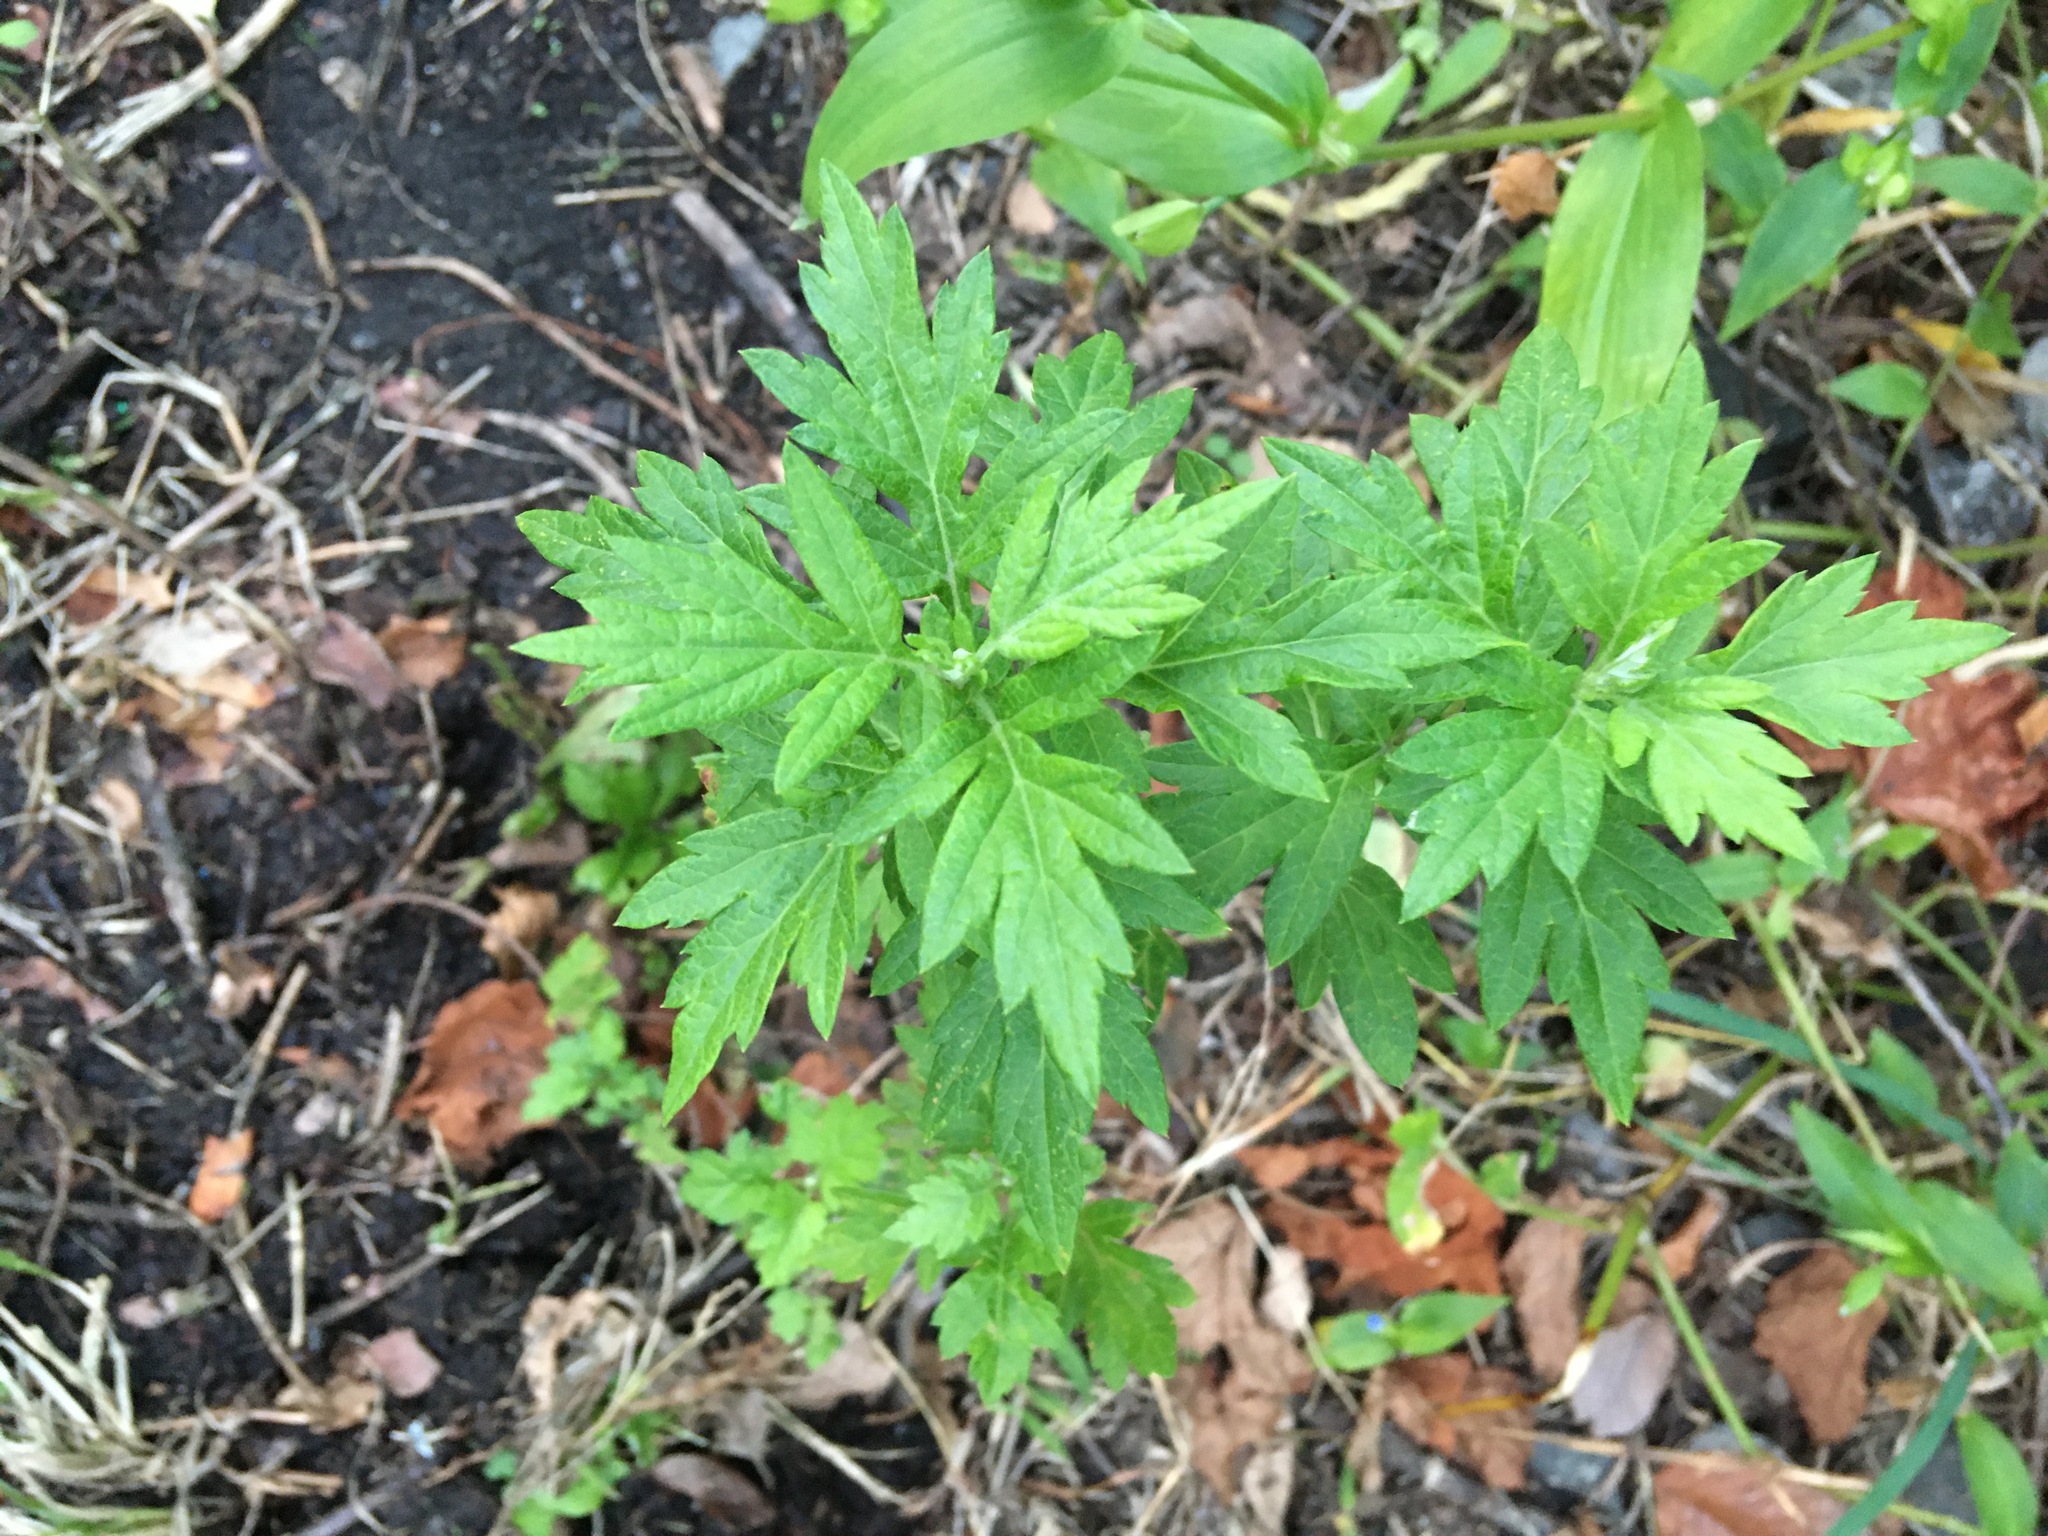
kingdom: Plantae
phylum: Tracheophyta
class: Magnoliopsida
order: Asterales
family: Asteraceae
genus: Artemisia
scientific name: Artemisia vulgaris
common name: Mugwort
